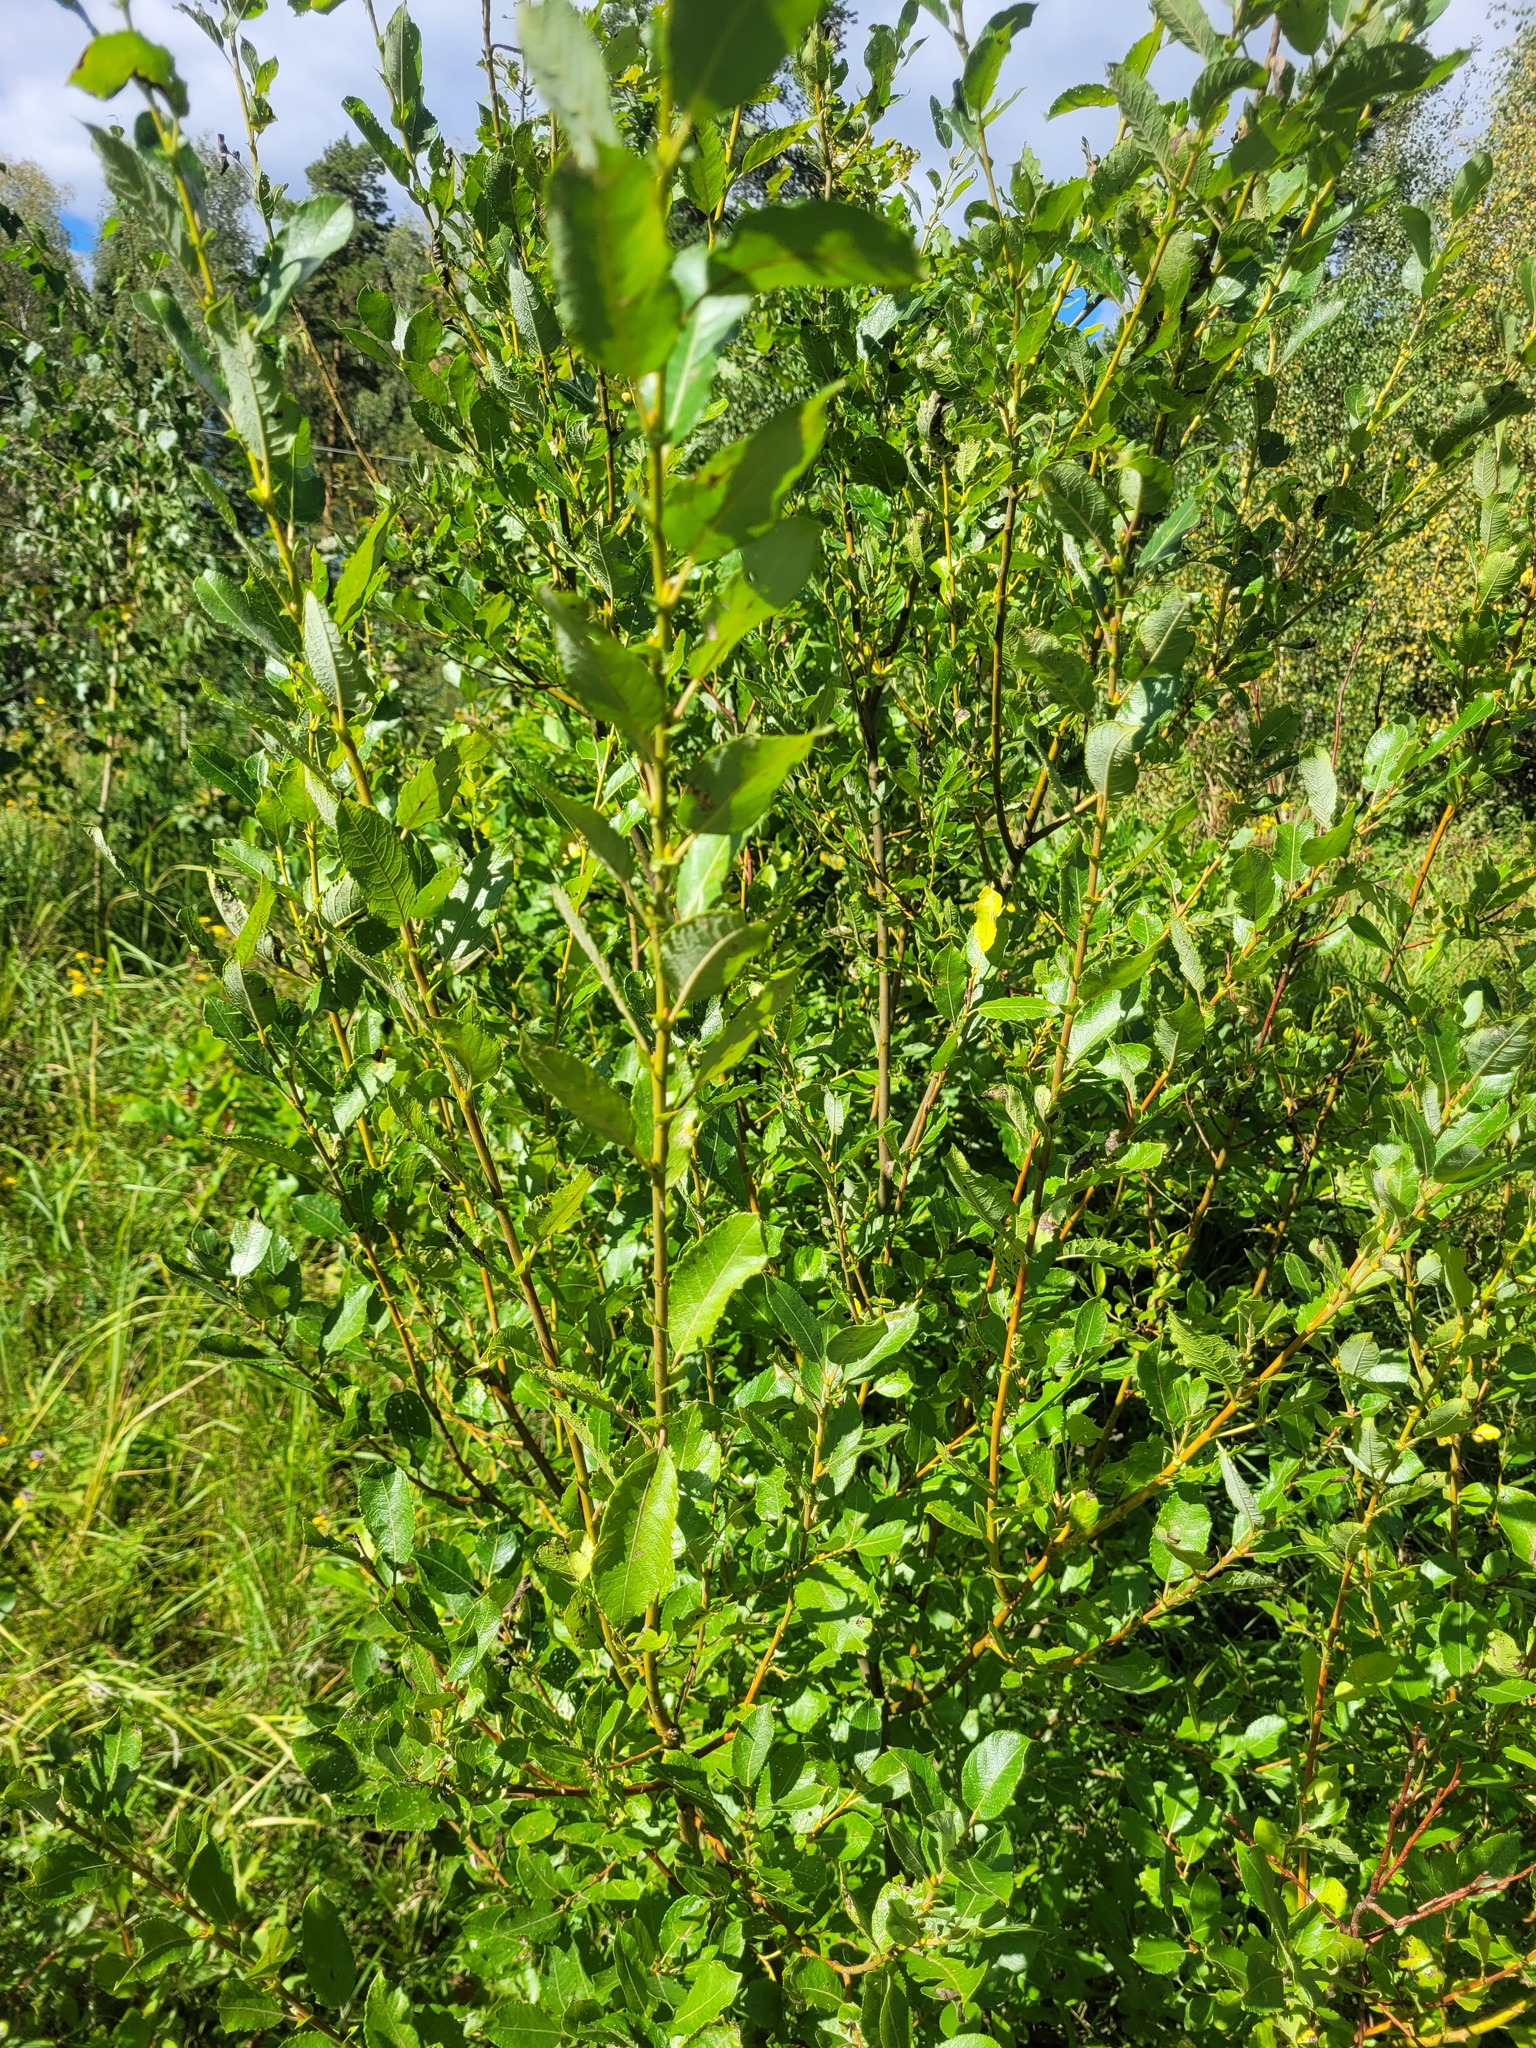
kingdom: Plantae
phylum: Tracheophyta
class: Magnoliopsida
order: Malpighiales
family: Salicaceae
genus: Salix
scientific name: Salix myrsinifolia
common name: Dark-leaved willow
